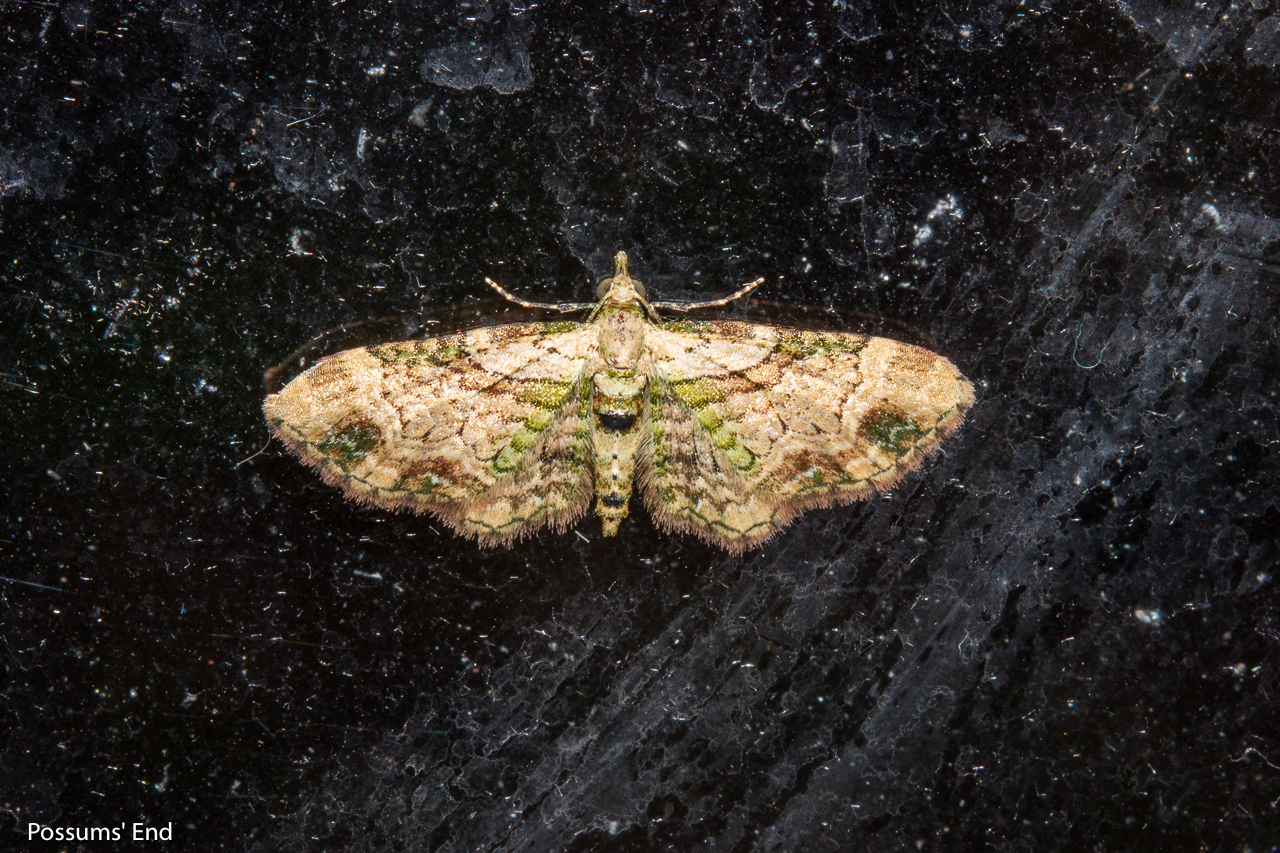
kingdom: Animalia
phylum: Arthropoda
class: Insecta
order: Lepidoptera
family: Geometridae
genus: Chloroclystis
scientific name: Chloroclystis
